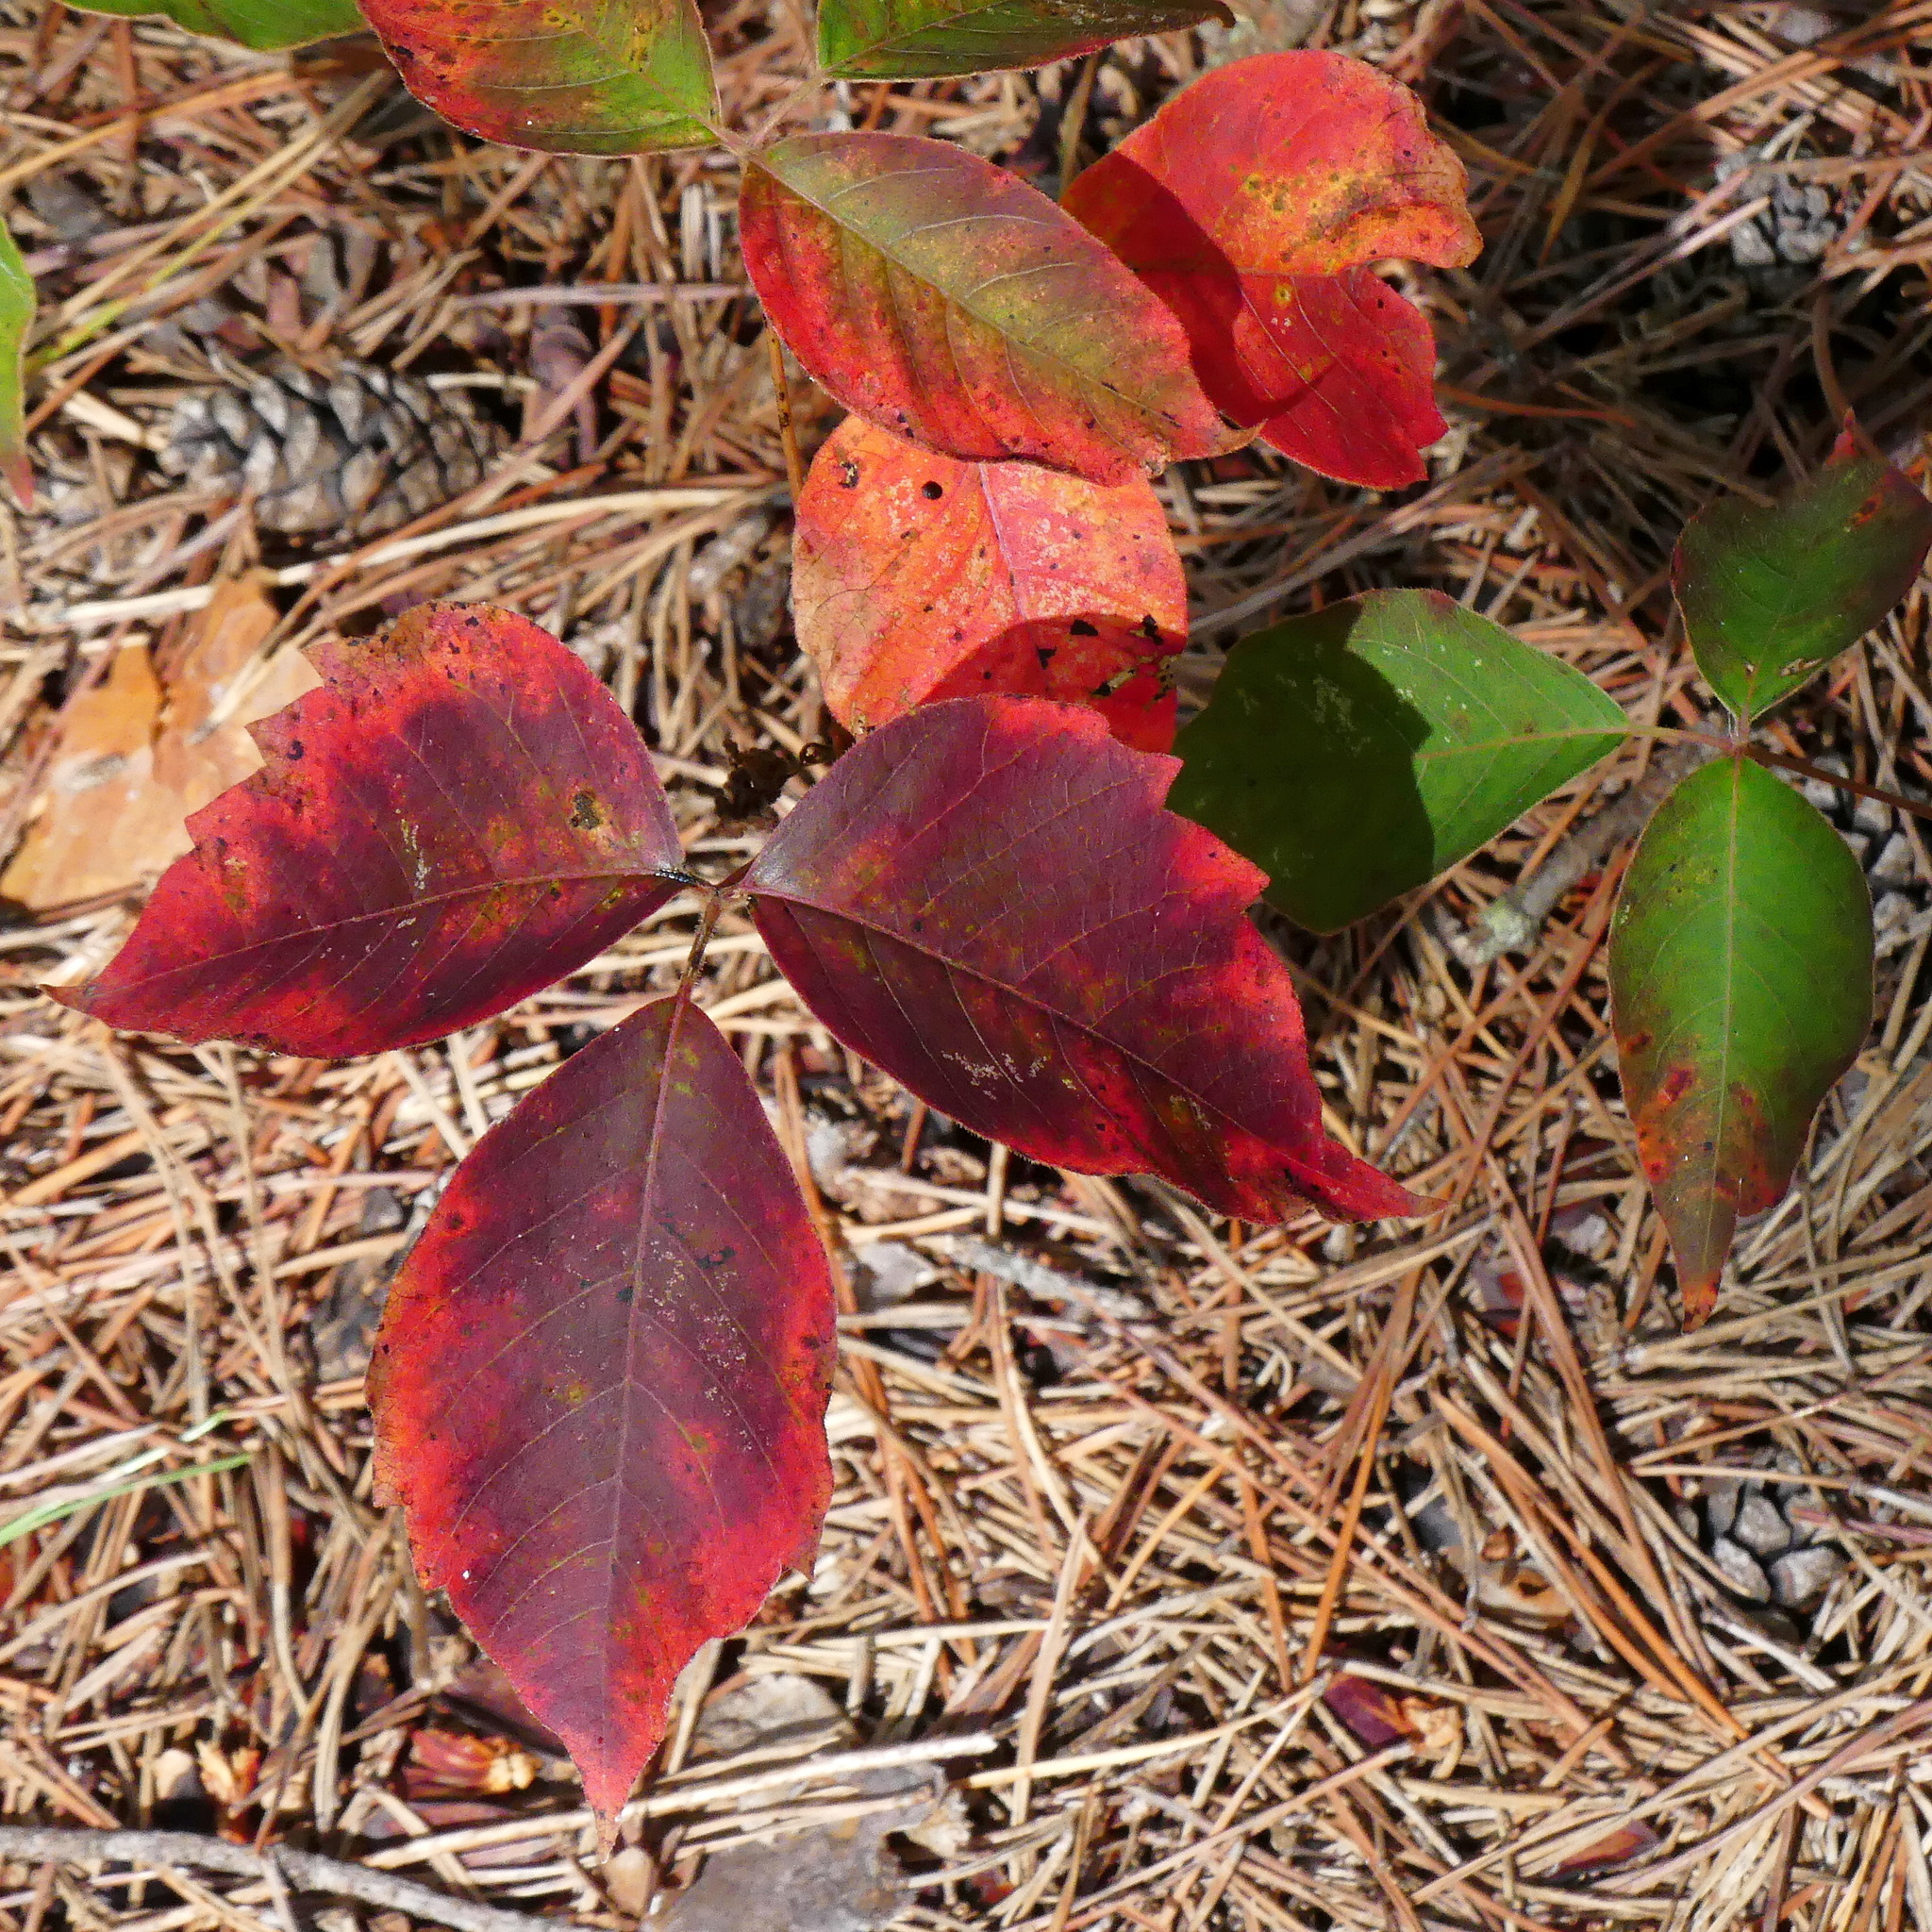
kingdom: Plantae
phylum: Tracheophyta
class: Magnoliopsida
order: Sapindales
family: Anacardiaceae
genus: Toxicodendron
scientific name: Toxicodendron rydbergii
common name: Rydberg's poison-ivy
